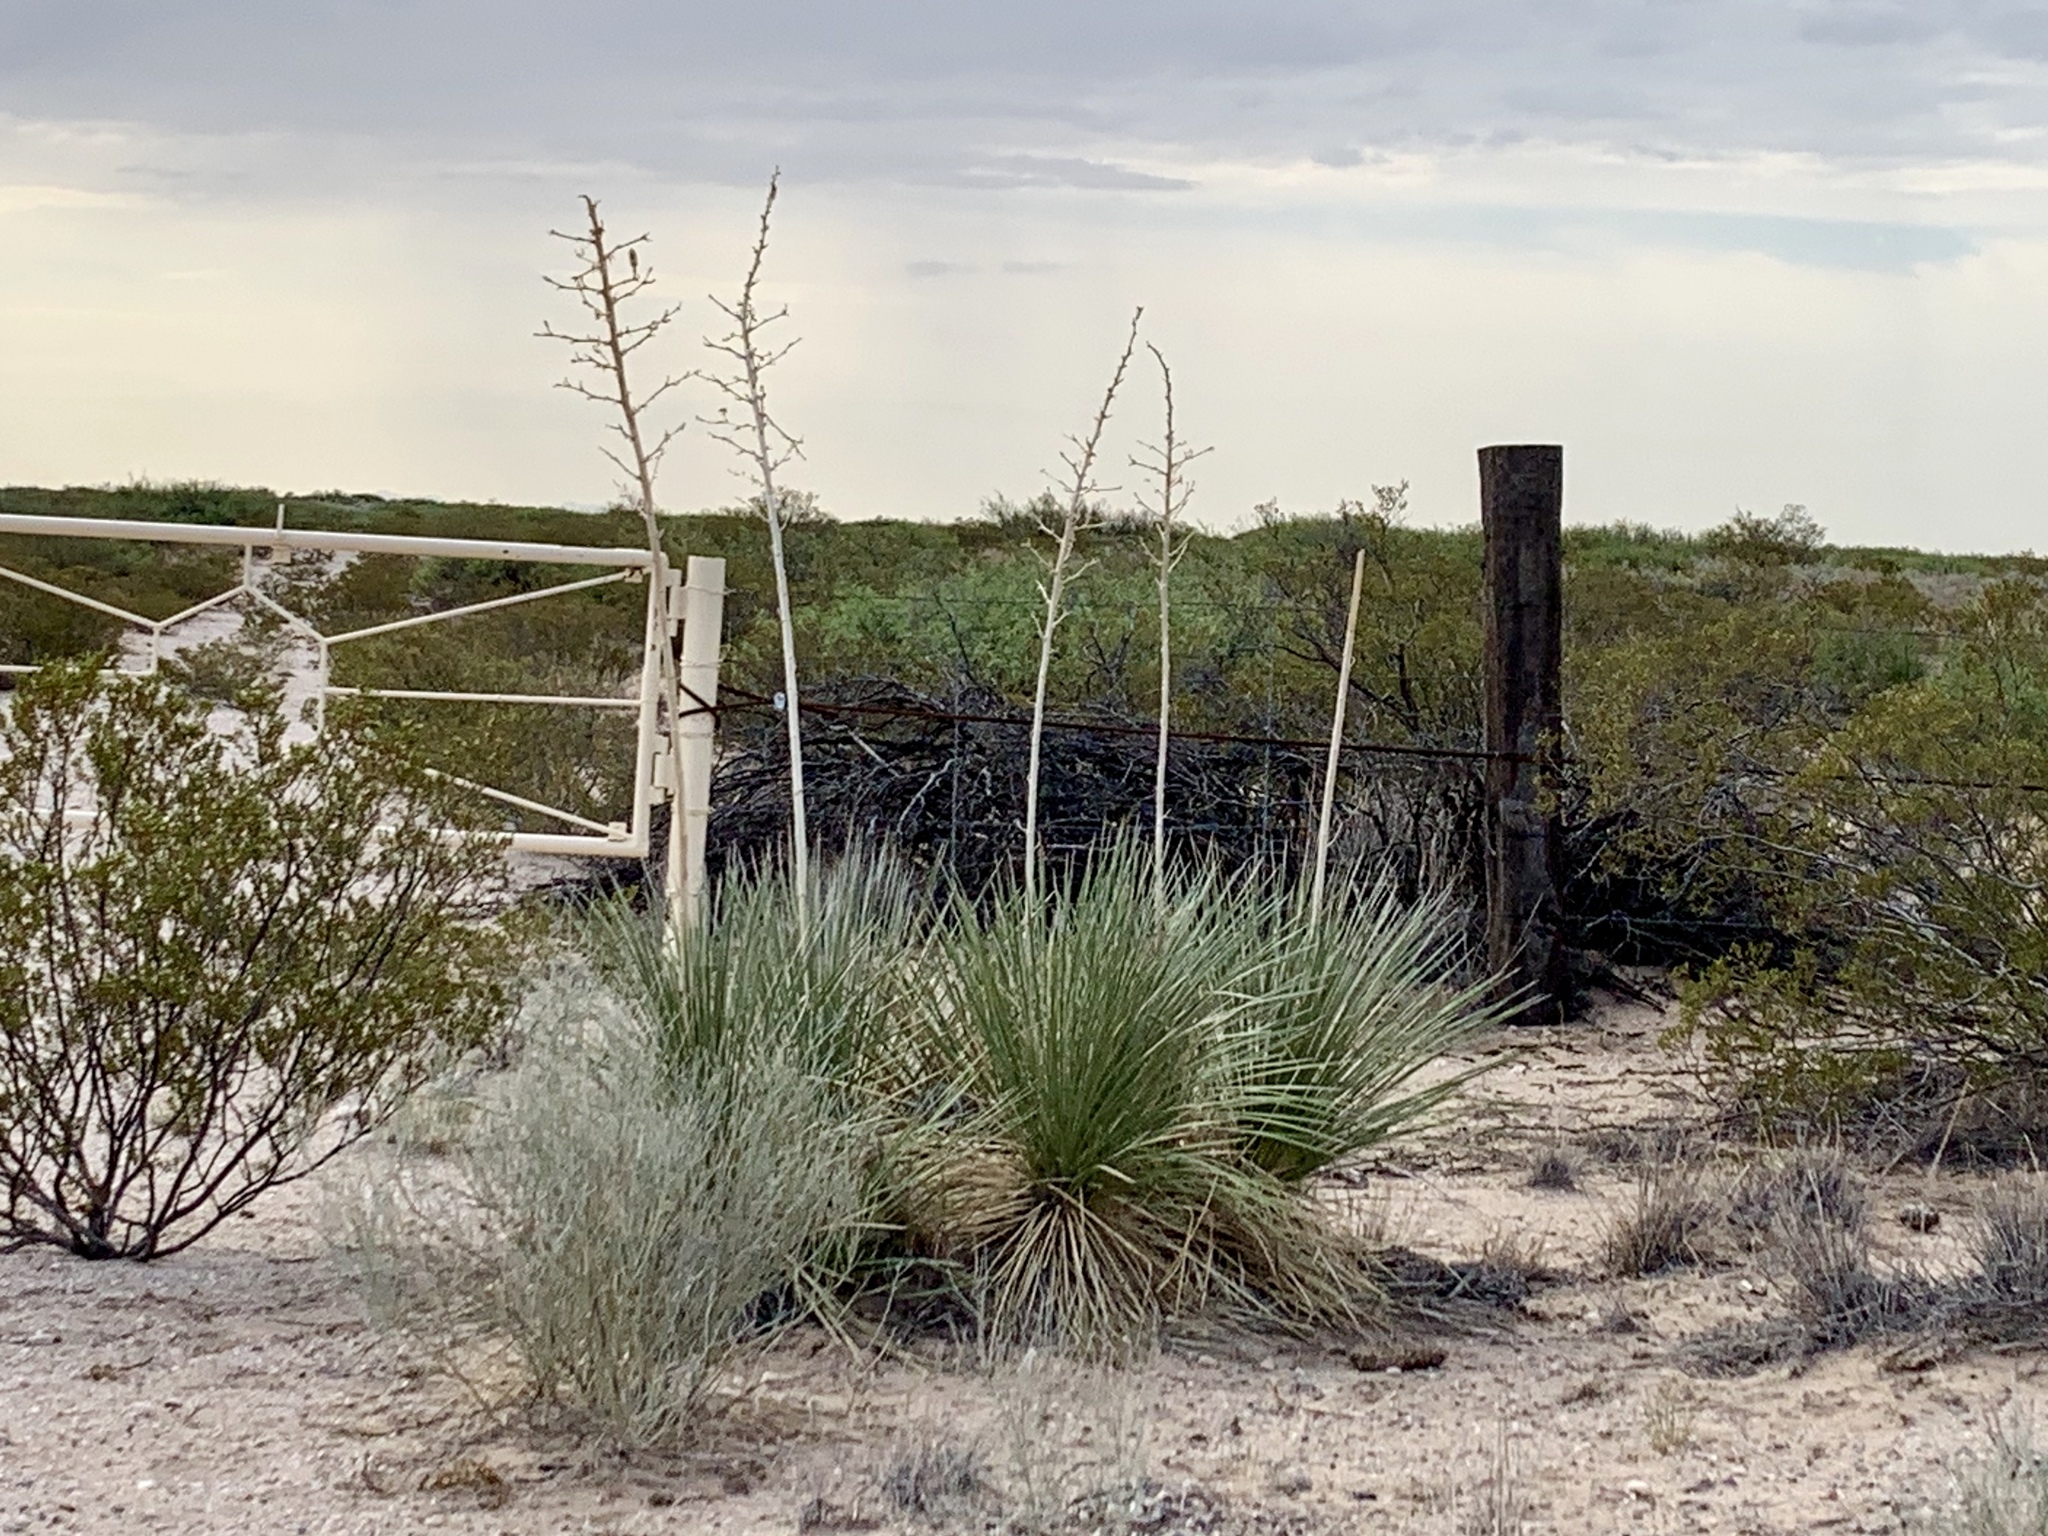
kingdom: Plantae
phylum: Tracheophyta
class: Liliopsida
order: Asparagales
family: Asparagaceae
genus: Yucca
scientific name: Yucca elata
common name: Palmella
